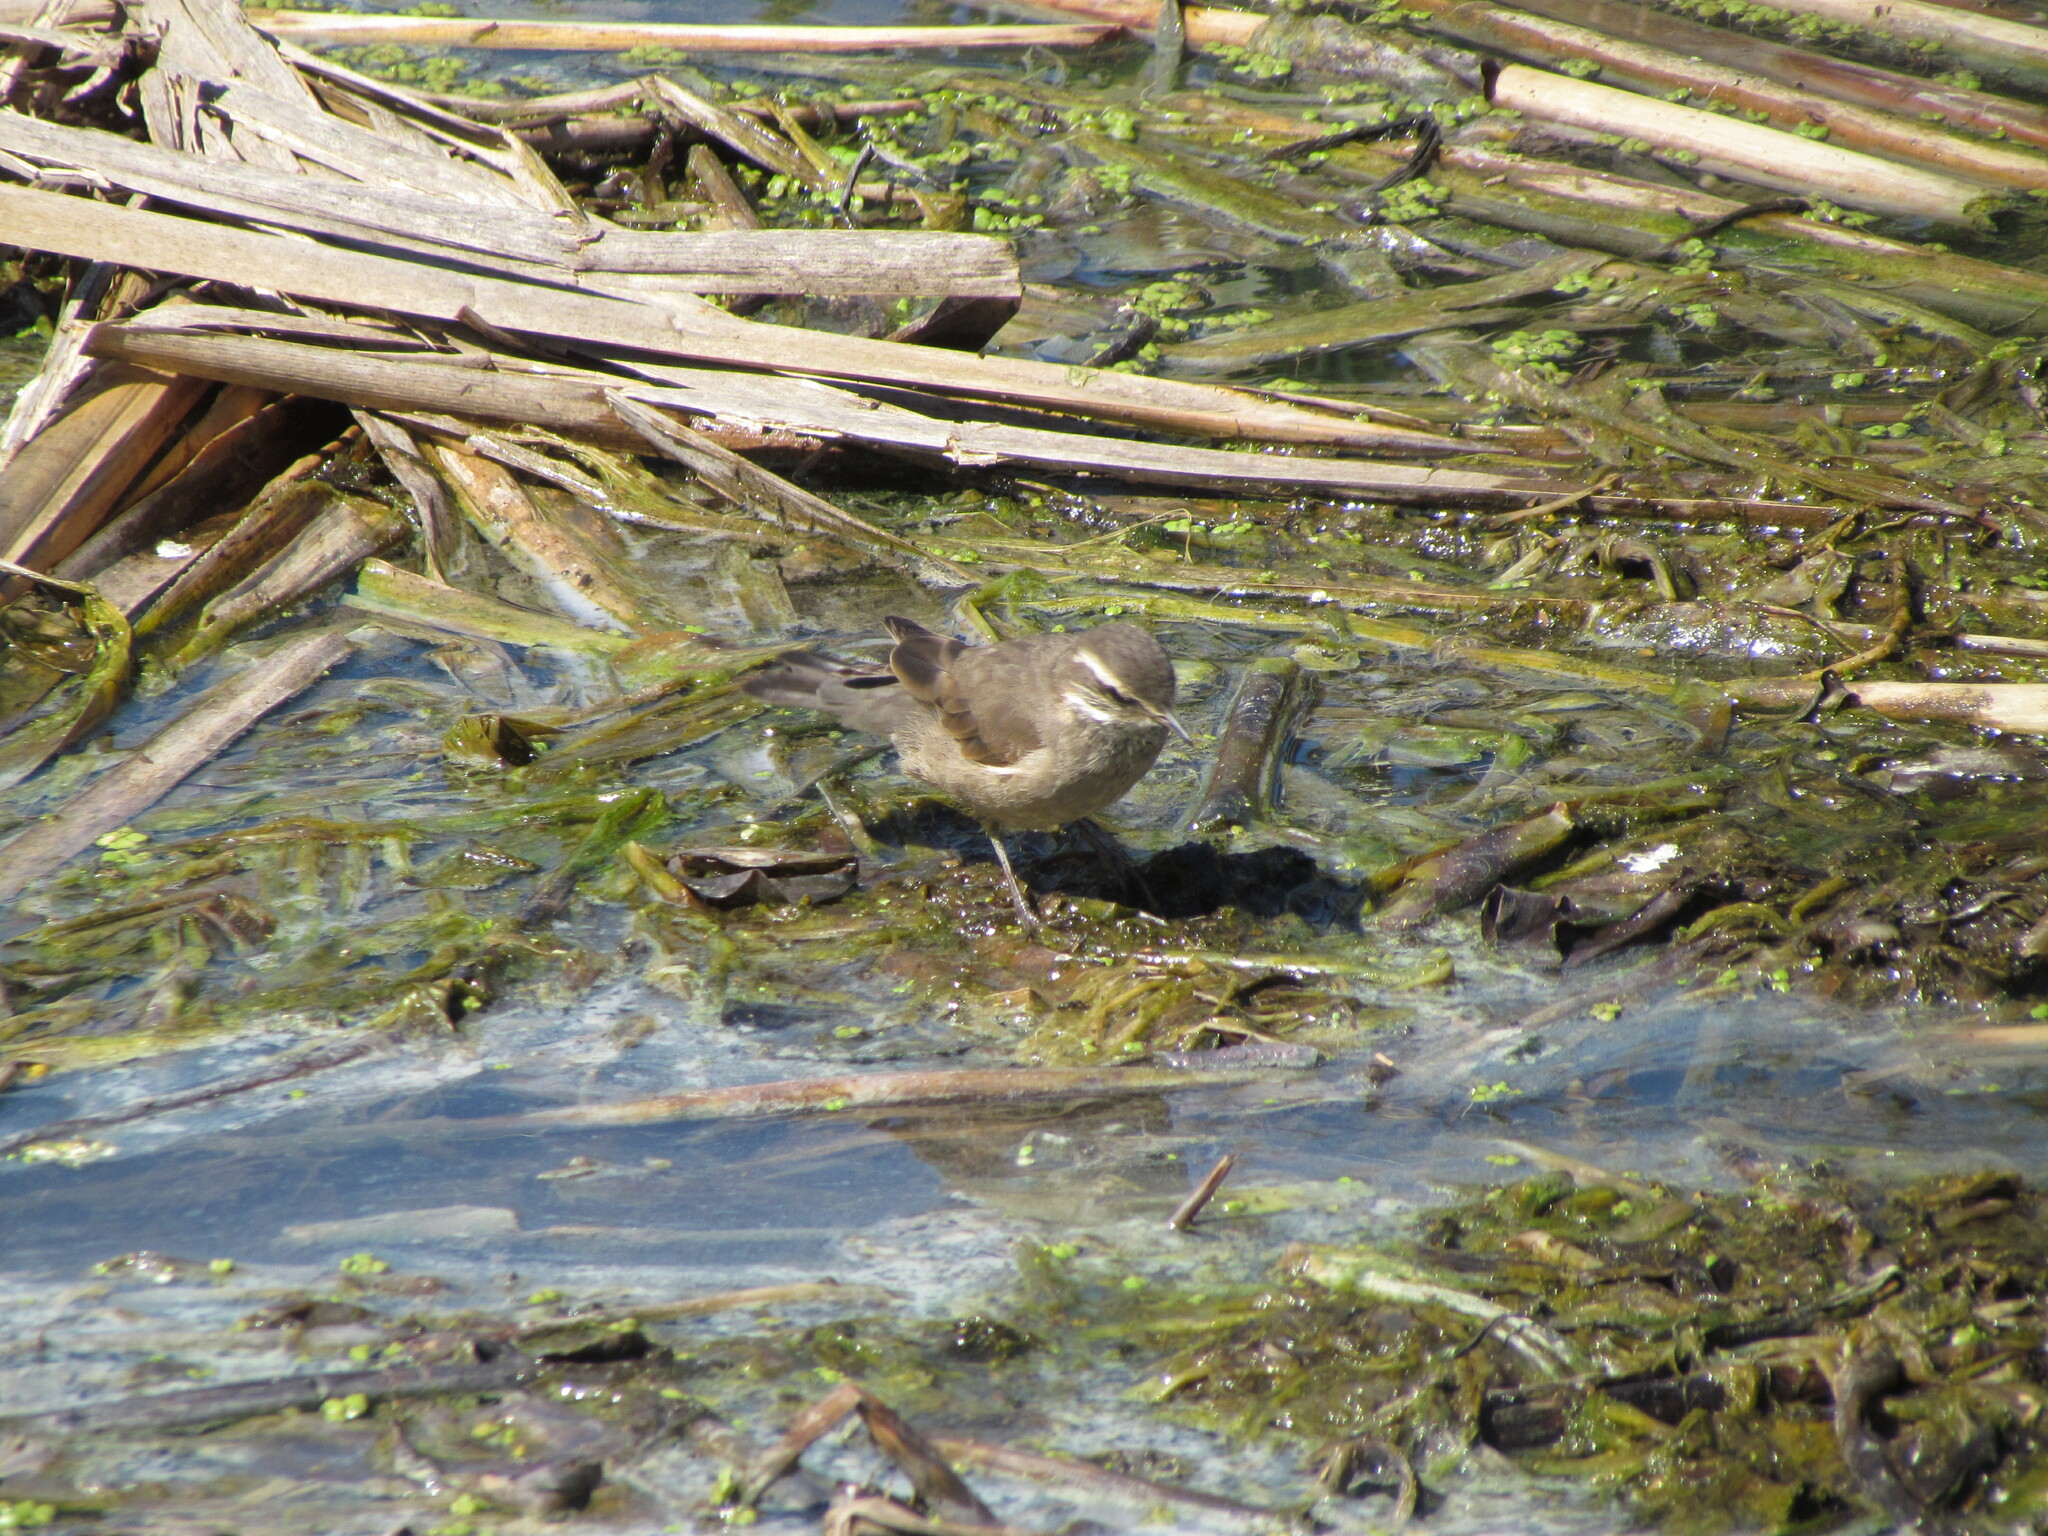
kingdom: Animalia
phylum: Chordata
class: Aves
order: Passeriformes
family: Furnariidae
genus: Cinclodes
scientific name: Cinclodes fuscus
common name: Buff-winged cinclodes
